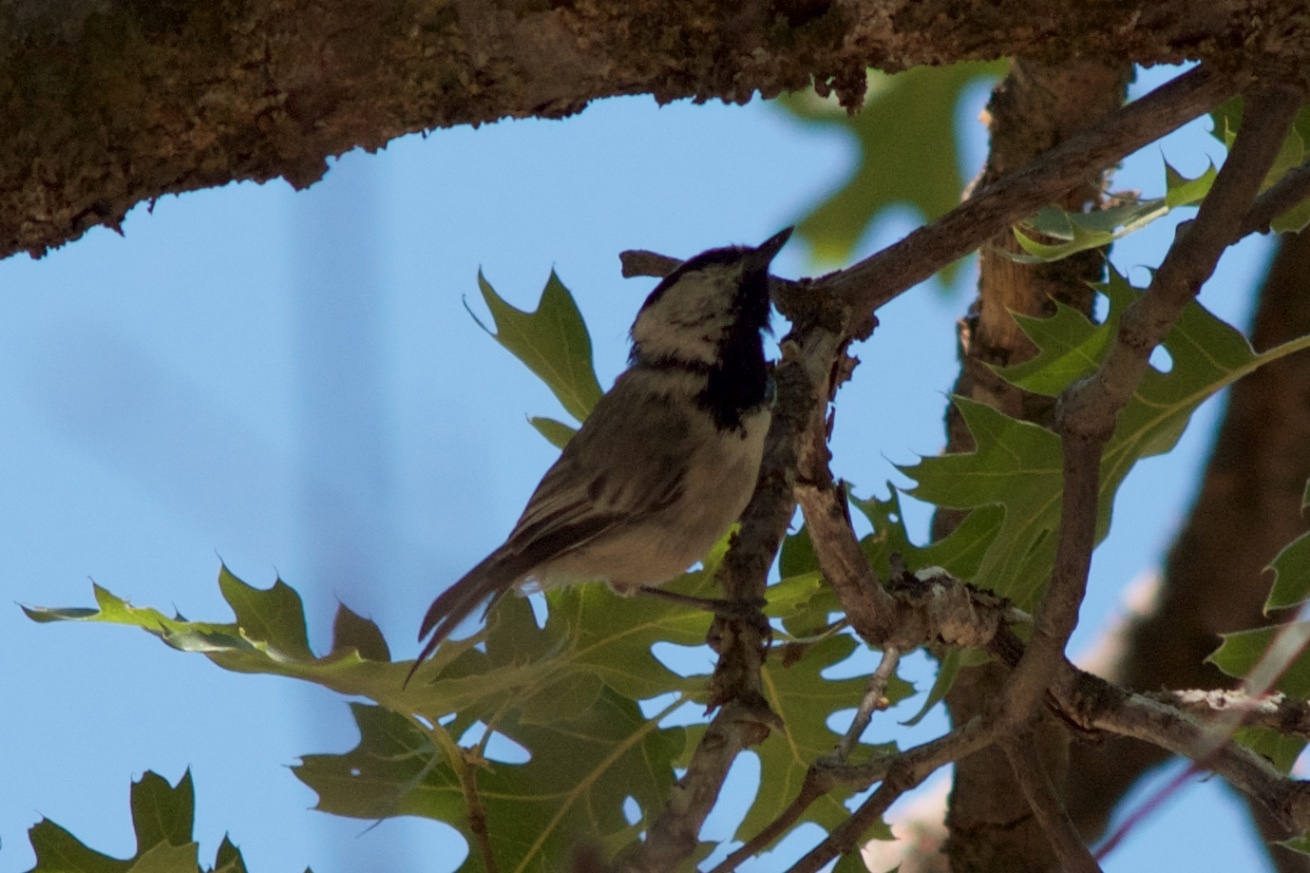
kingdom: Animalia
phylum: Chordata
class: Aves
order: Passeriformes
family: Paridae
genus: Poecile
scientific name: Poecile gambeli
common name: Mountain chickadee
